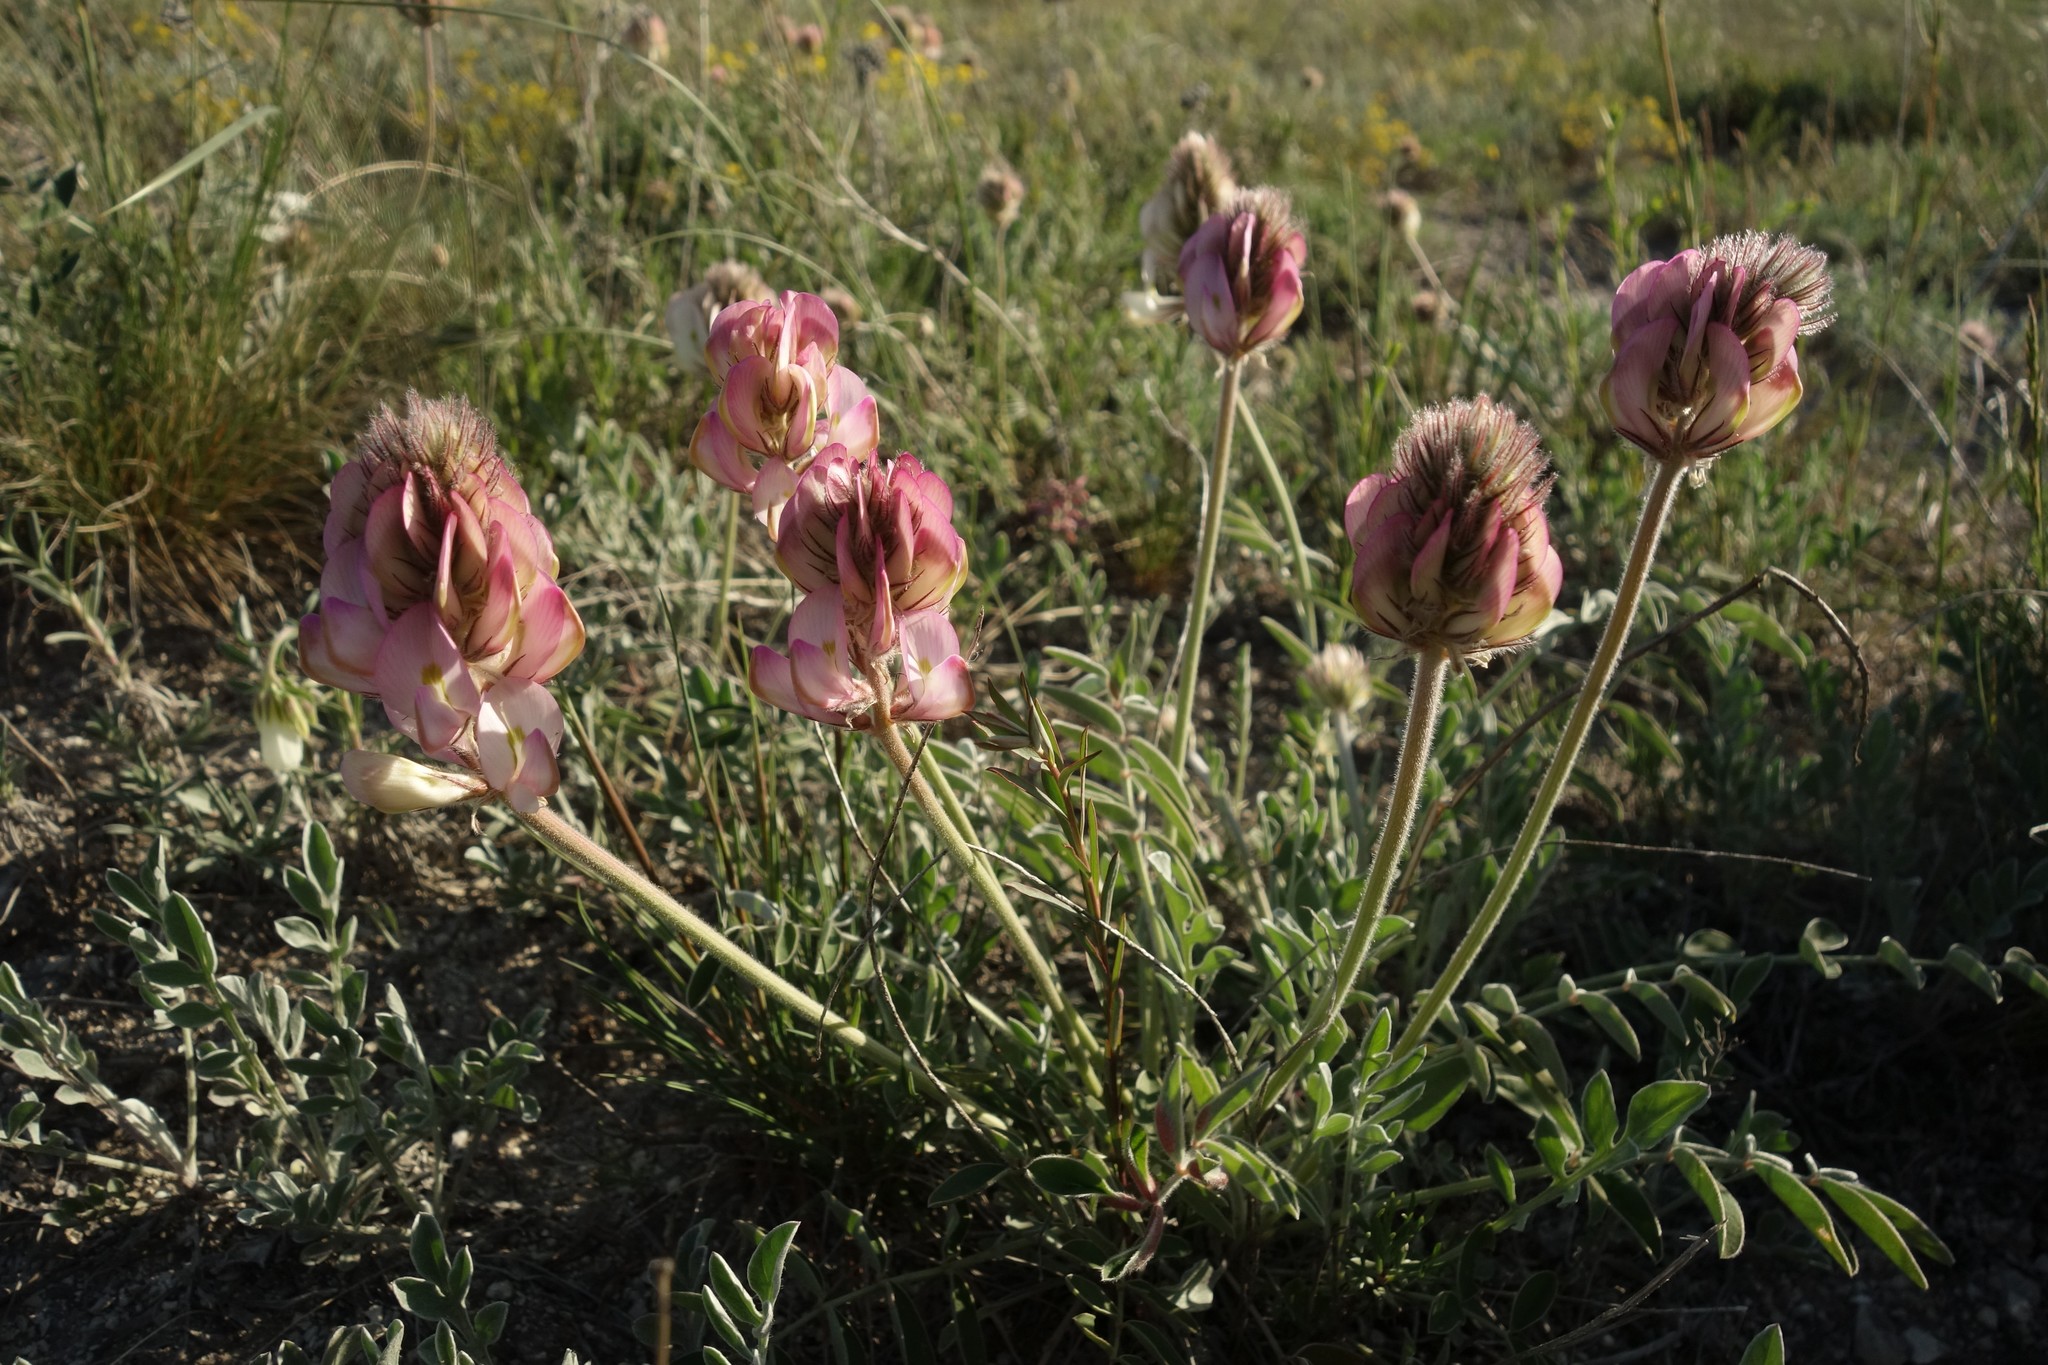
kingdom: Plantae
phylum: Tracheophyta
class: Magnoliopsida
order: Fabales
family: Fabaceae
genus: Hedysarum
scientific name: Hedysarum grandiflorum
